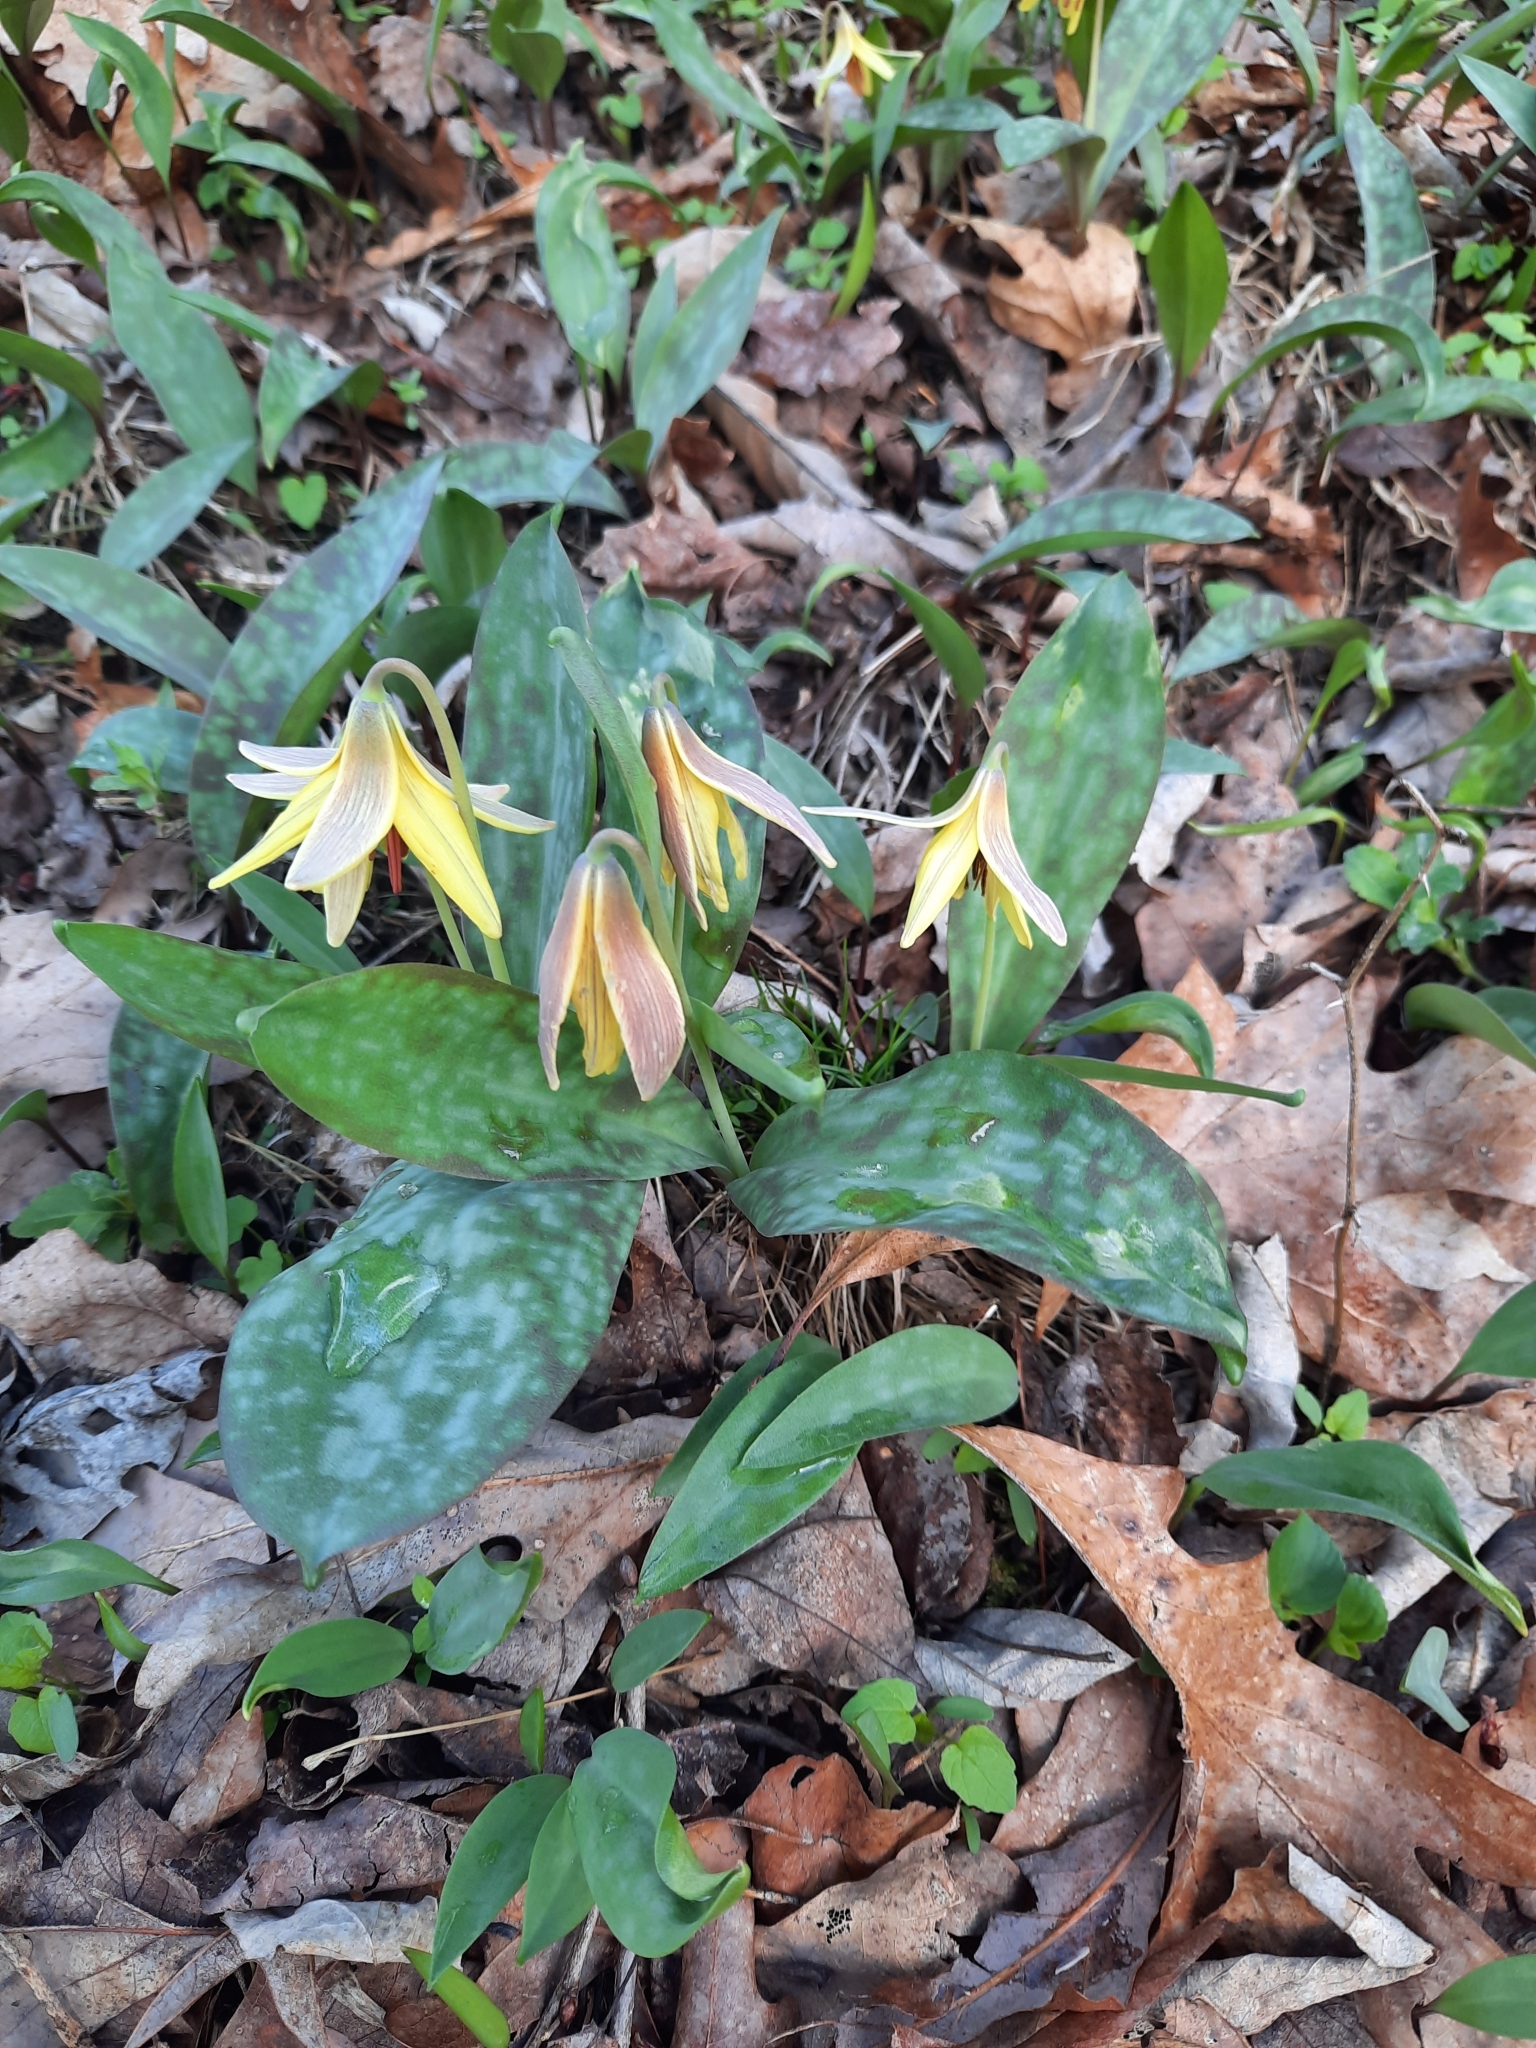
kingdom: Plantae
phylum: Tracheophyta
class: Liliopsida
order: Liliales
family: Liliaceae
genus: Erythronium
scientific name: Erythronium americanum
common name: Yellow adder's-tongue
